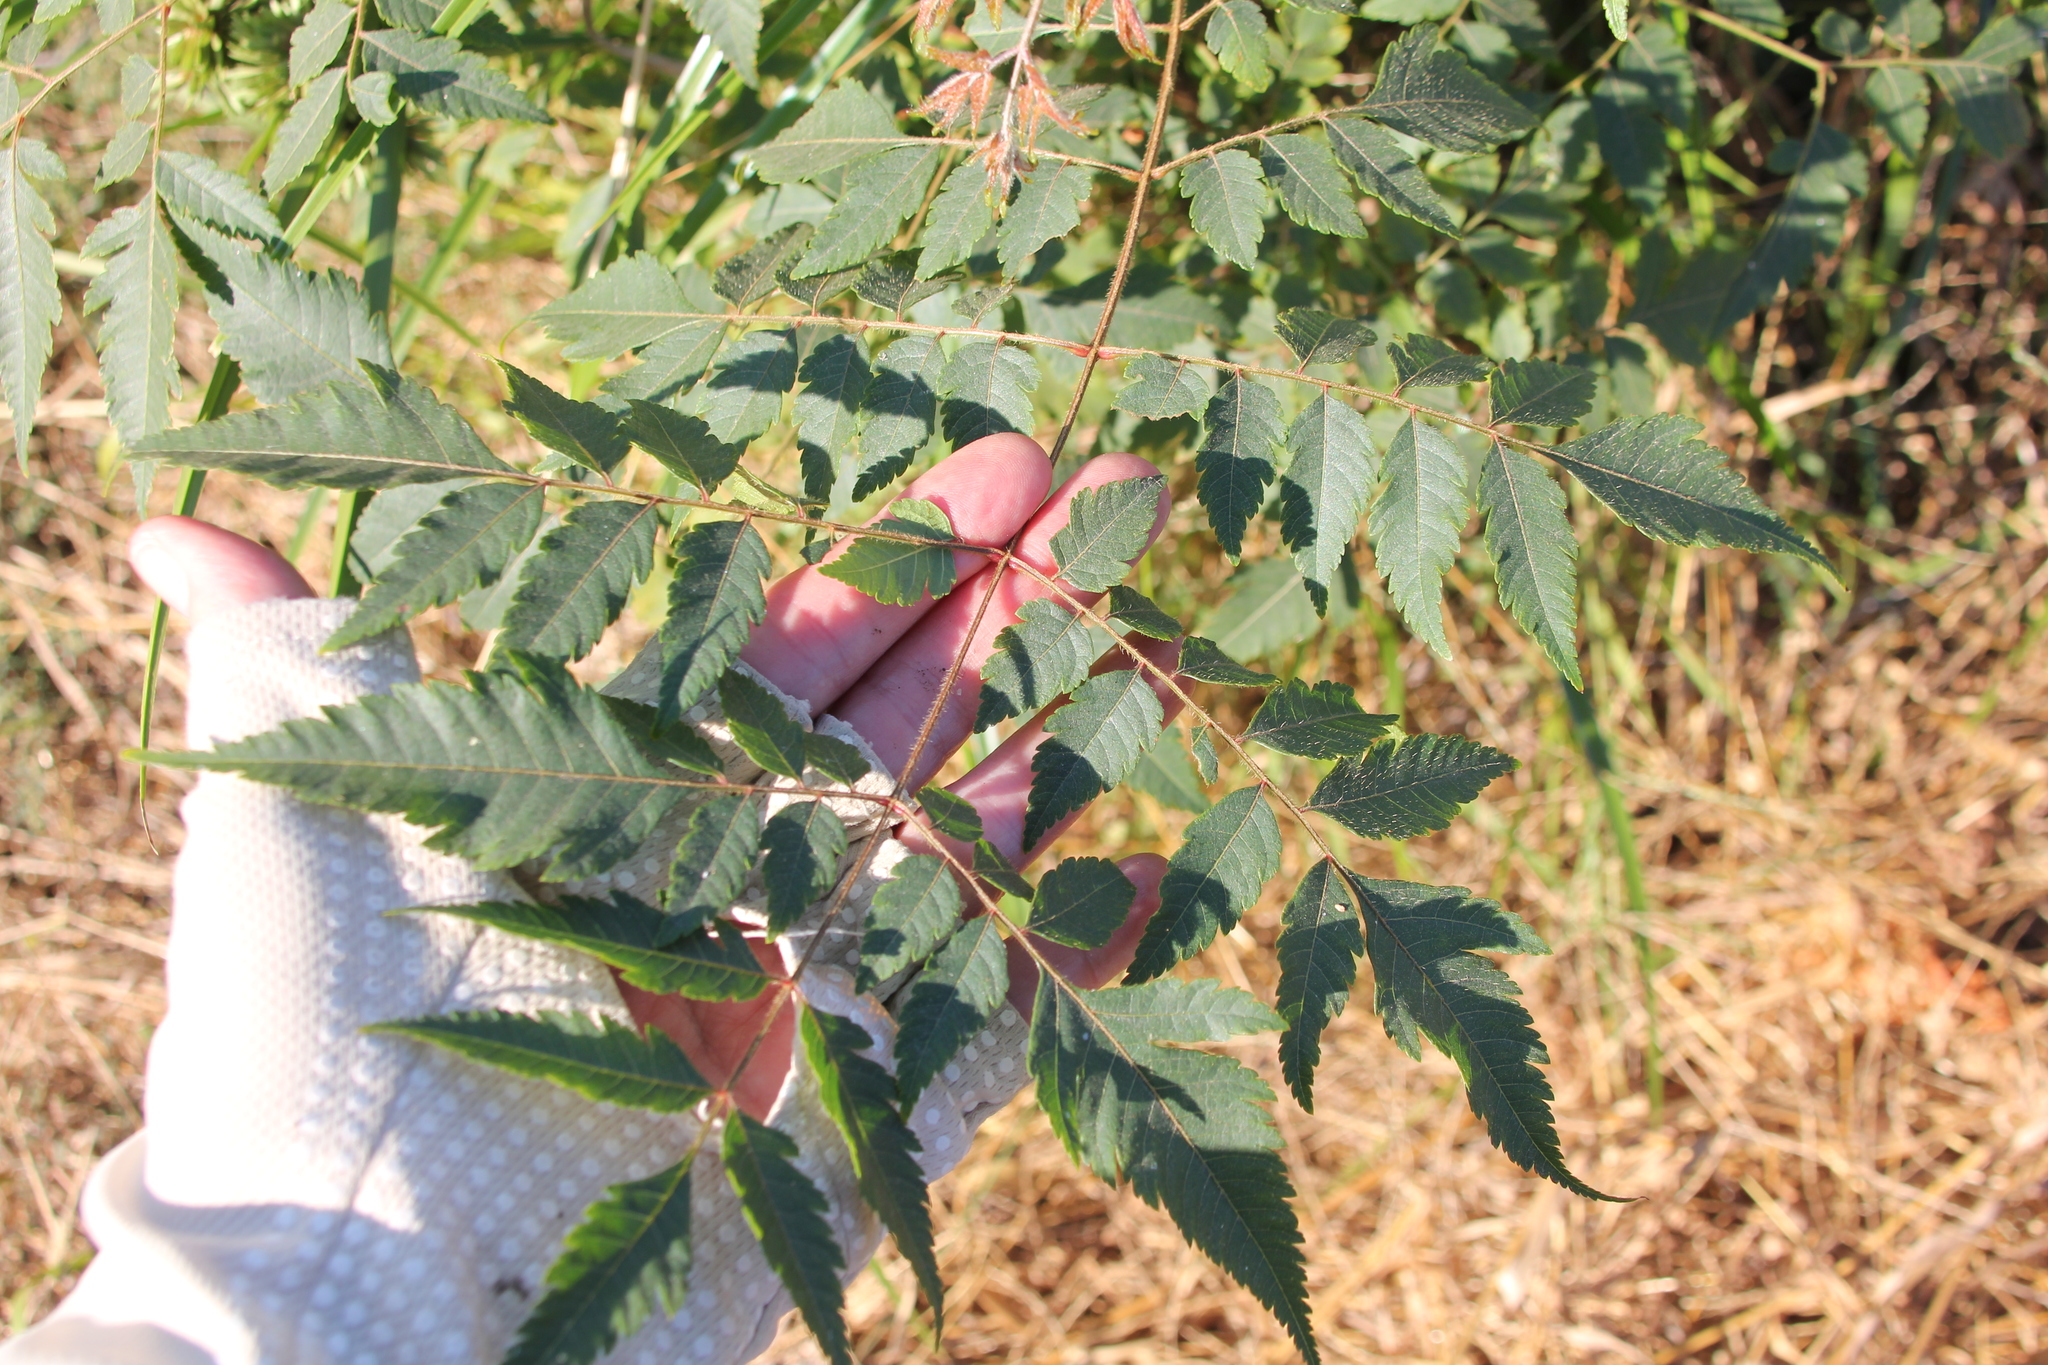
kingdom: Plantae
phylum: Tracheophyta
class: Magnoliopsida
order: Sapindales
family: Meliaceae
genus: Melia
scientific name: Melia azedarach
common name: Chinaberrytree
